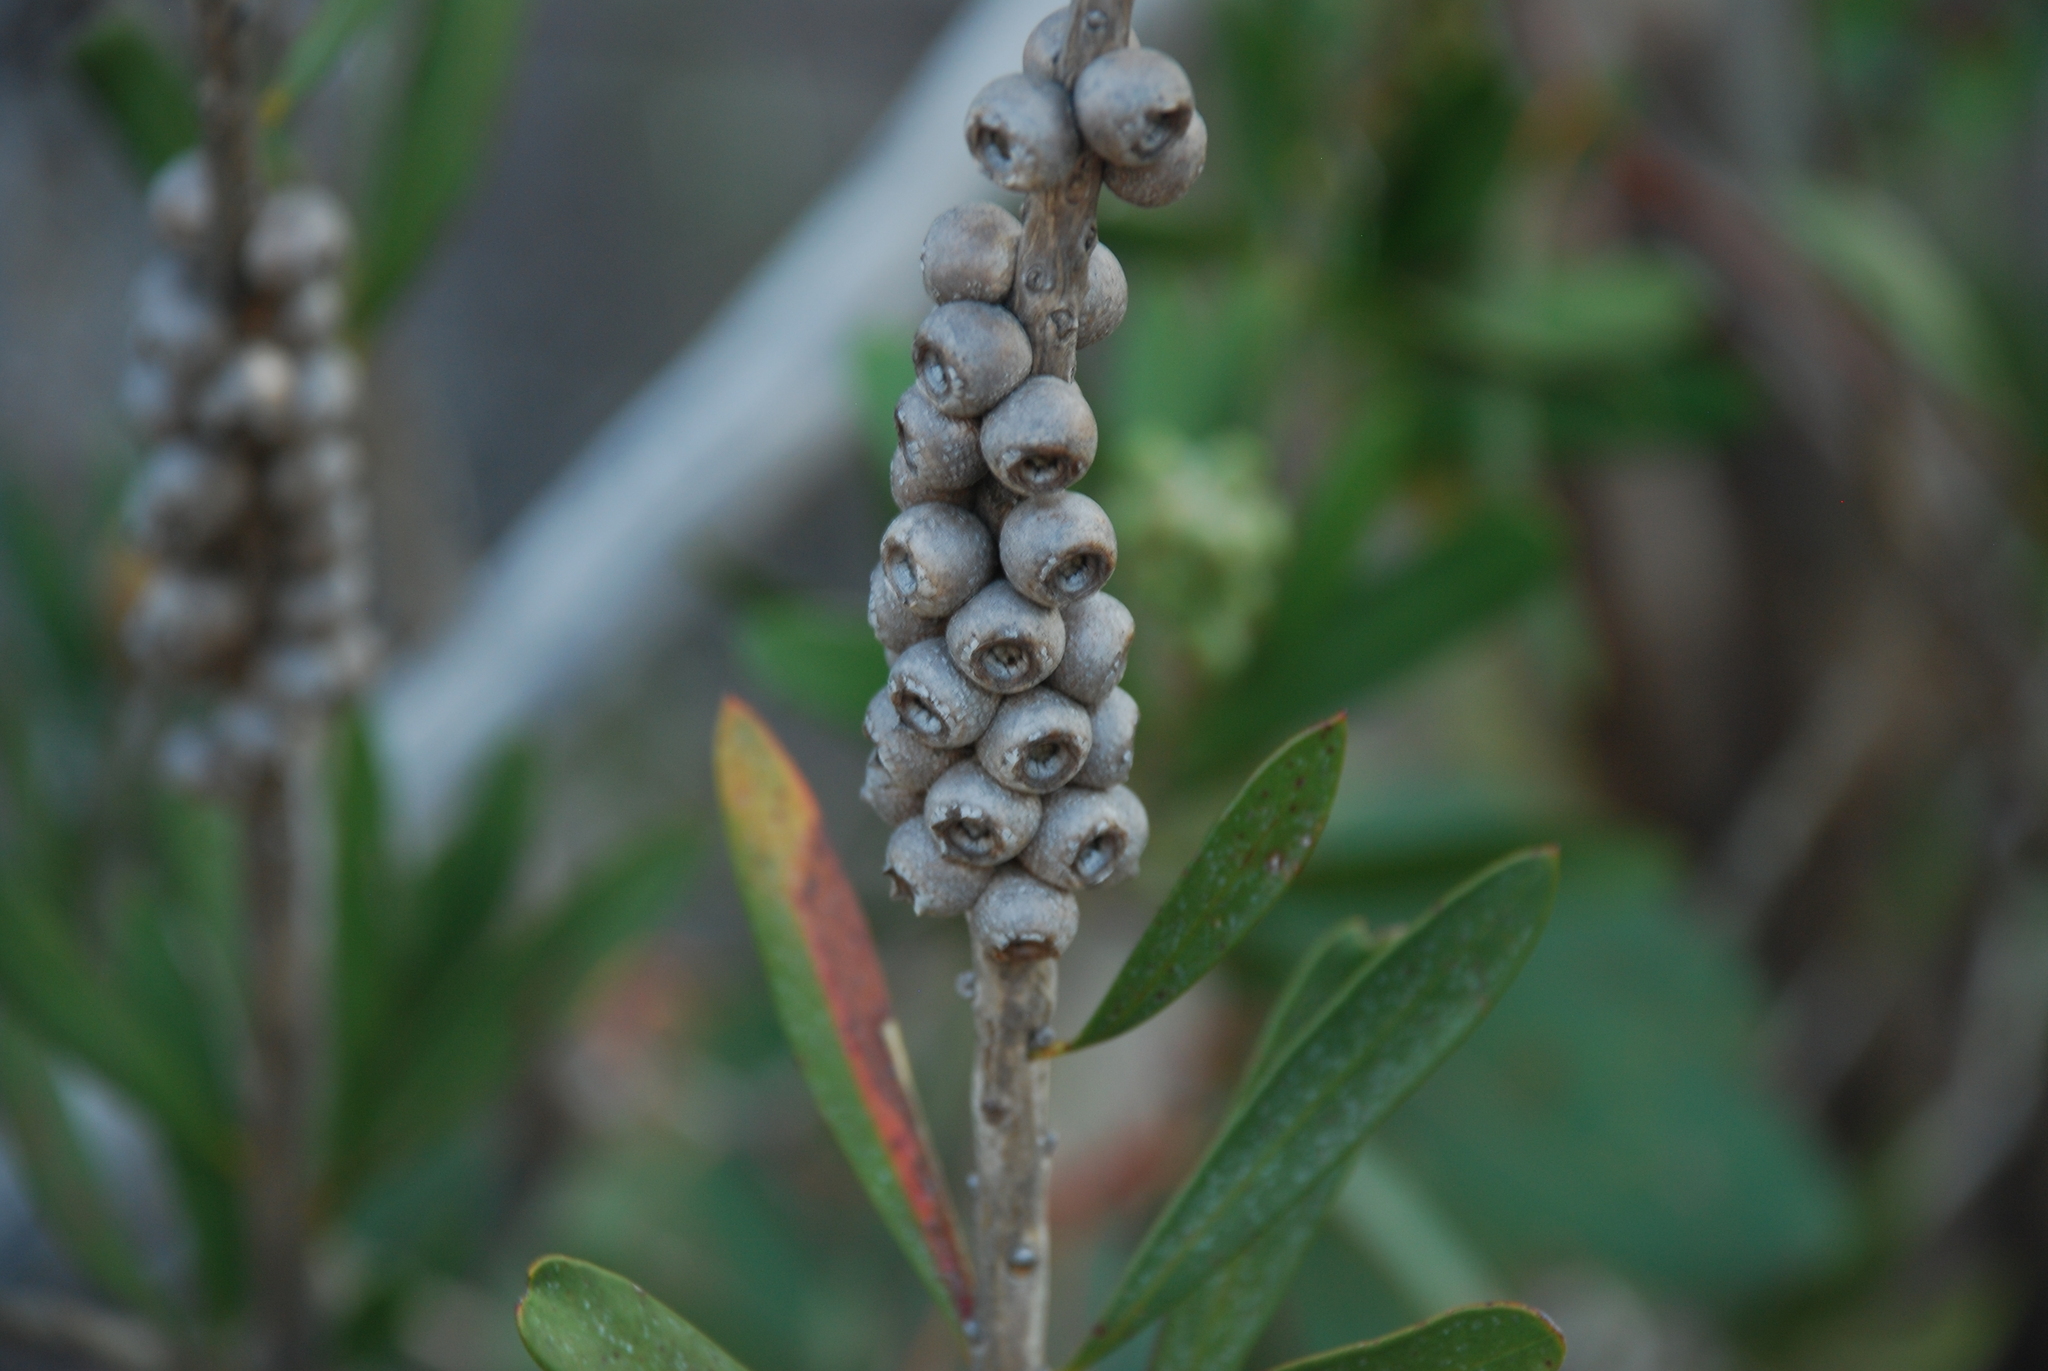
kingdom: Plantae
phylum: Tracheophyta
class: Magnoliopsida
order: Myrtales
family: Myrtaceae
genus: Melaleuca
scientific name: Melaleuca pallida
